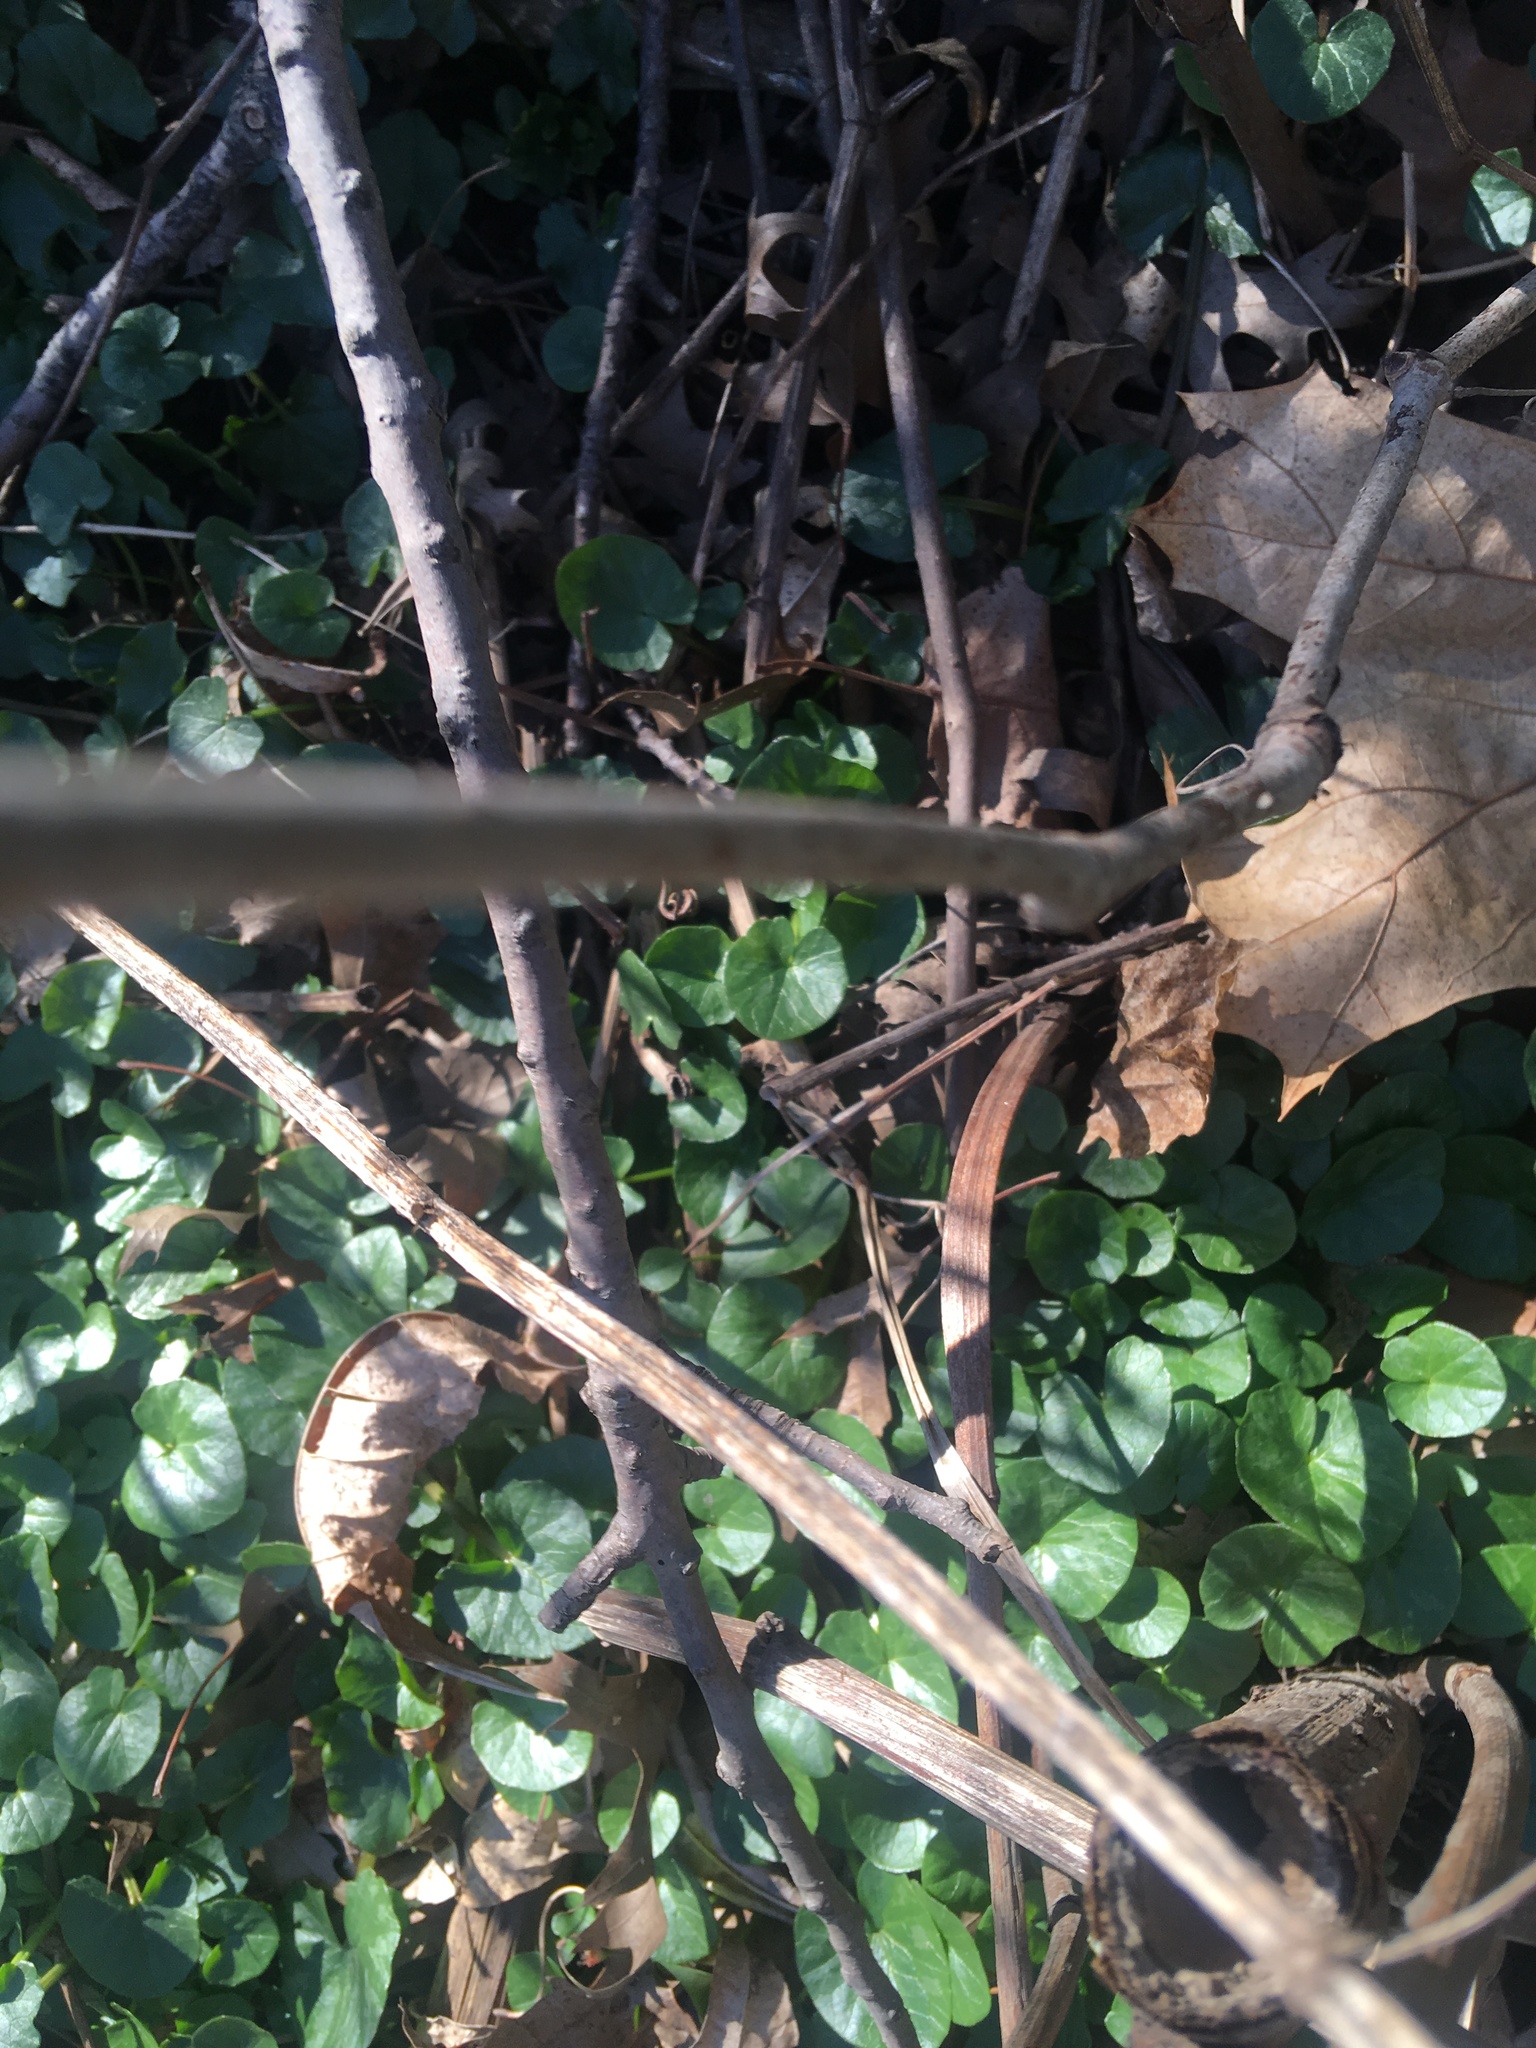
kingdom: Plantae
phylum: Tracheophyta
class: Magnoliopsida
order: Ranunculales
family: Ranunculaceae
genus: Ficaria
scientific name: Ficaria verna
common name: Lesser celandine
